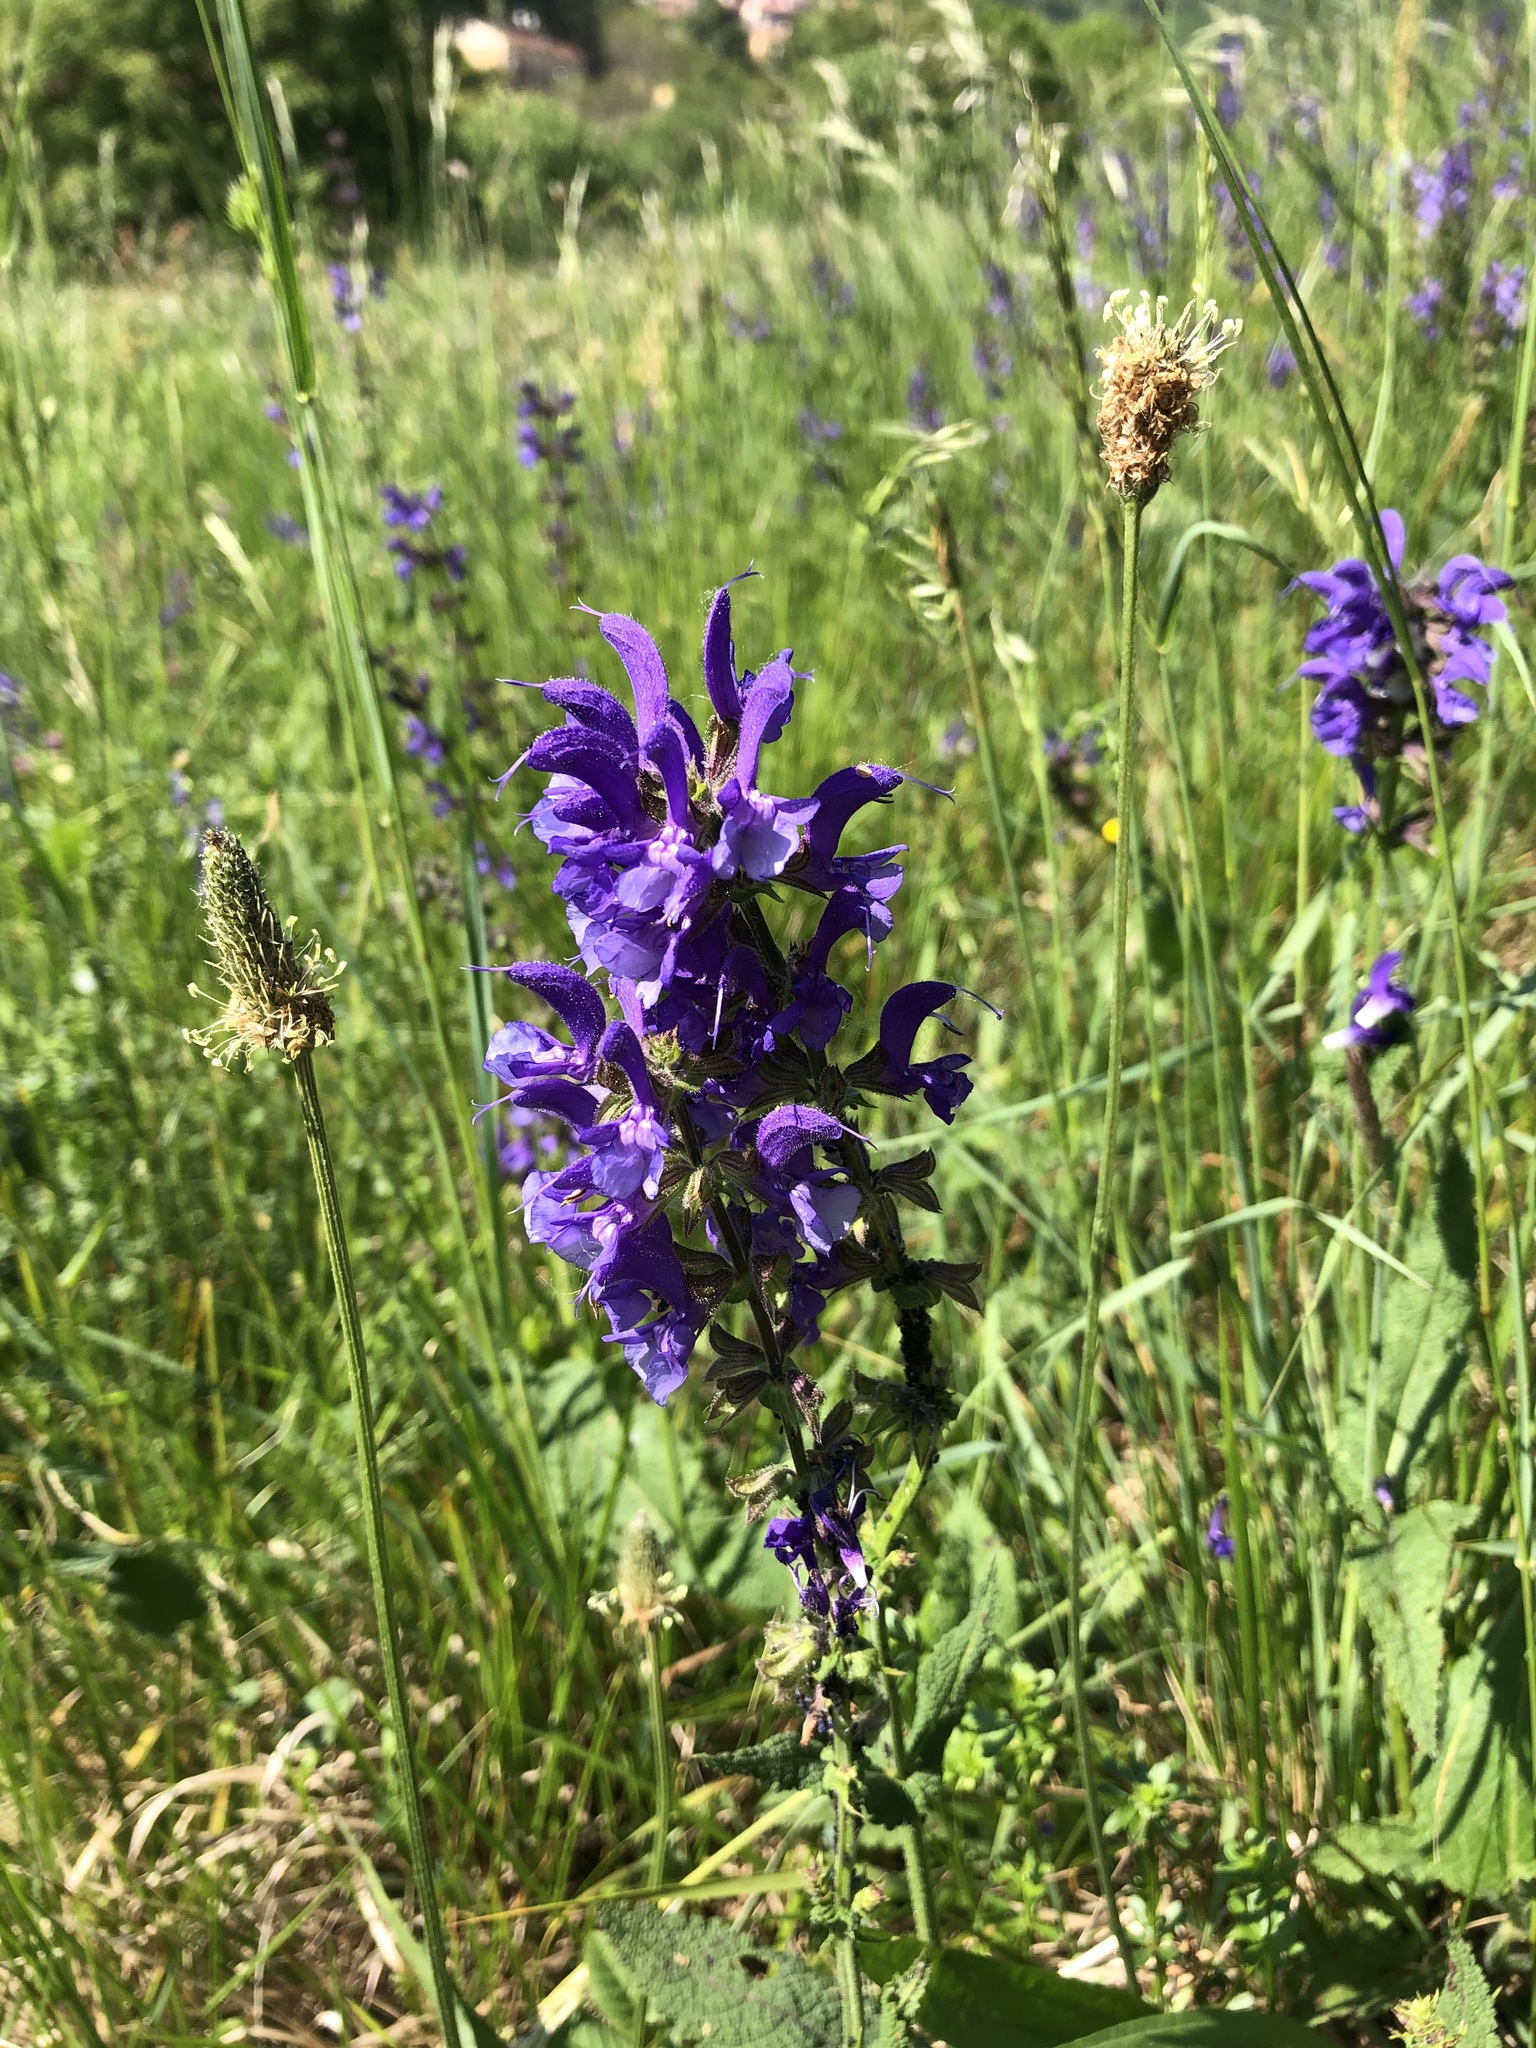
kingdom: Plantae
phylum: Tracheophyta
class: Magnoliopsida
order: Lamiales
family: Lamiaceae
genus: Salvia
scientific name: Salvia pratensis
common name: Meadow sage
